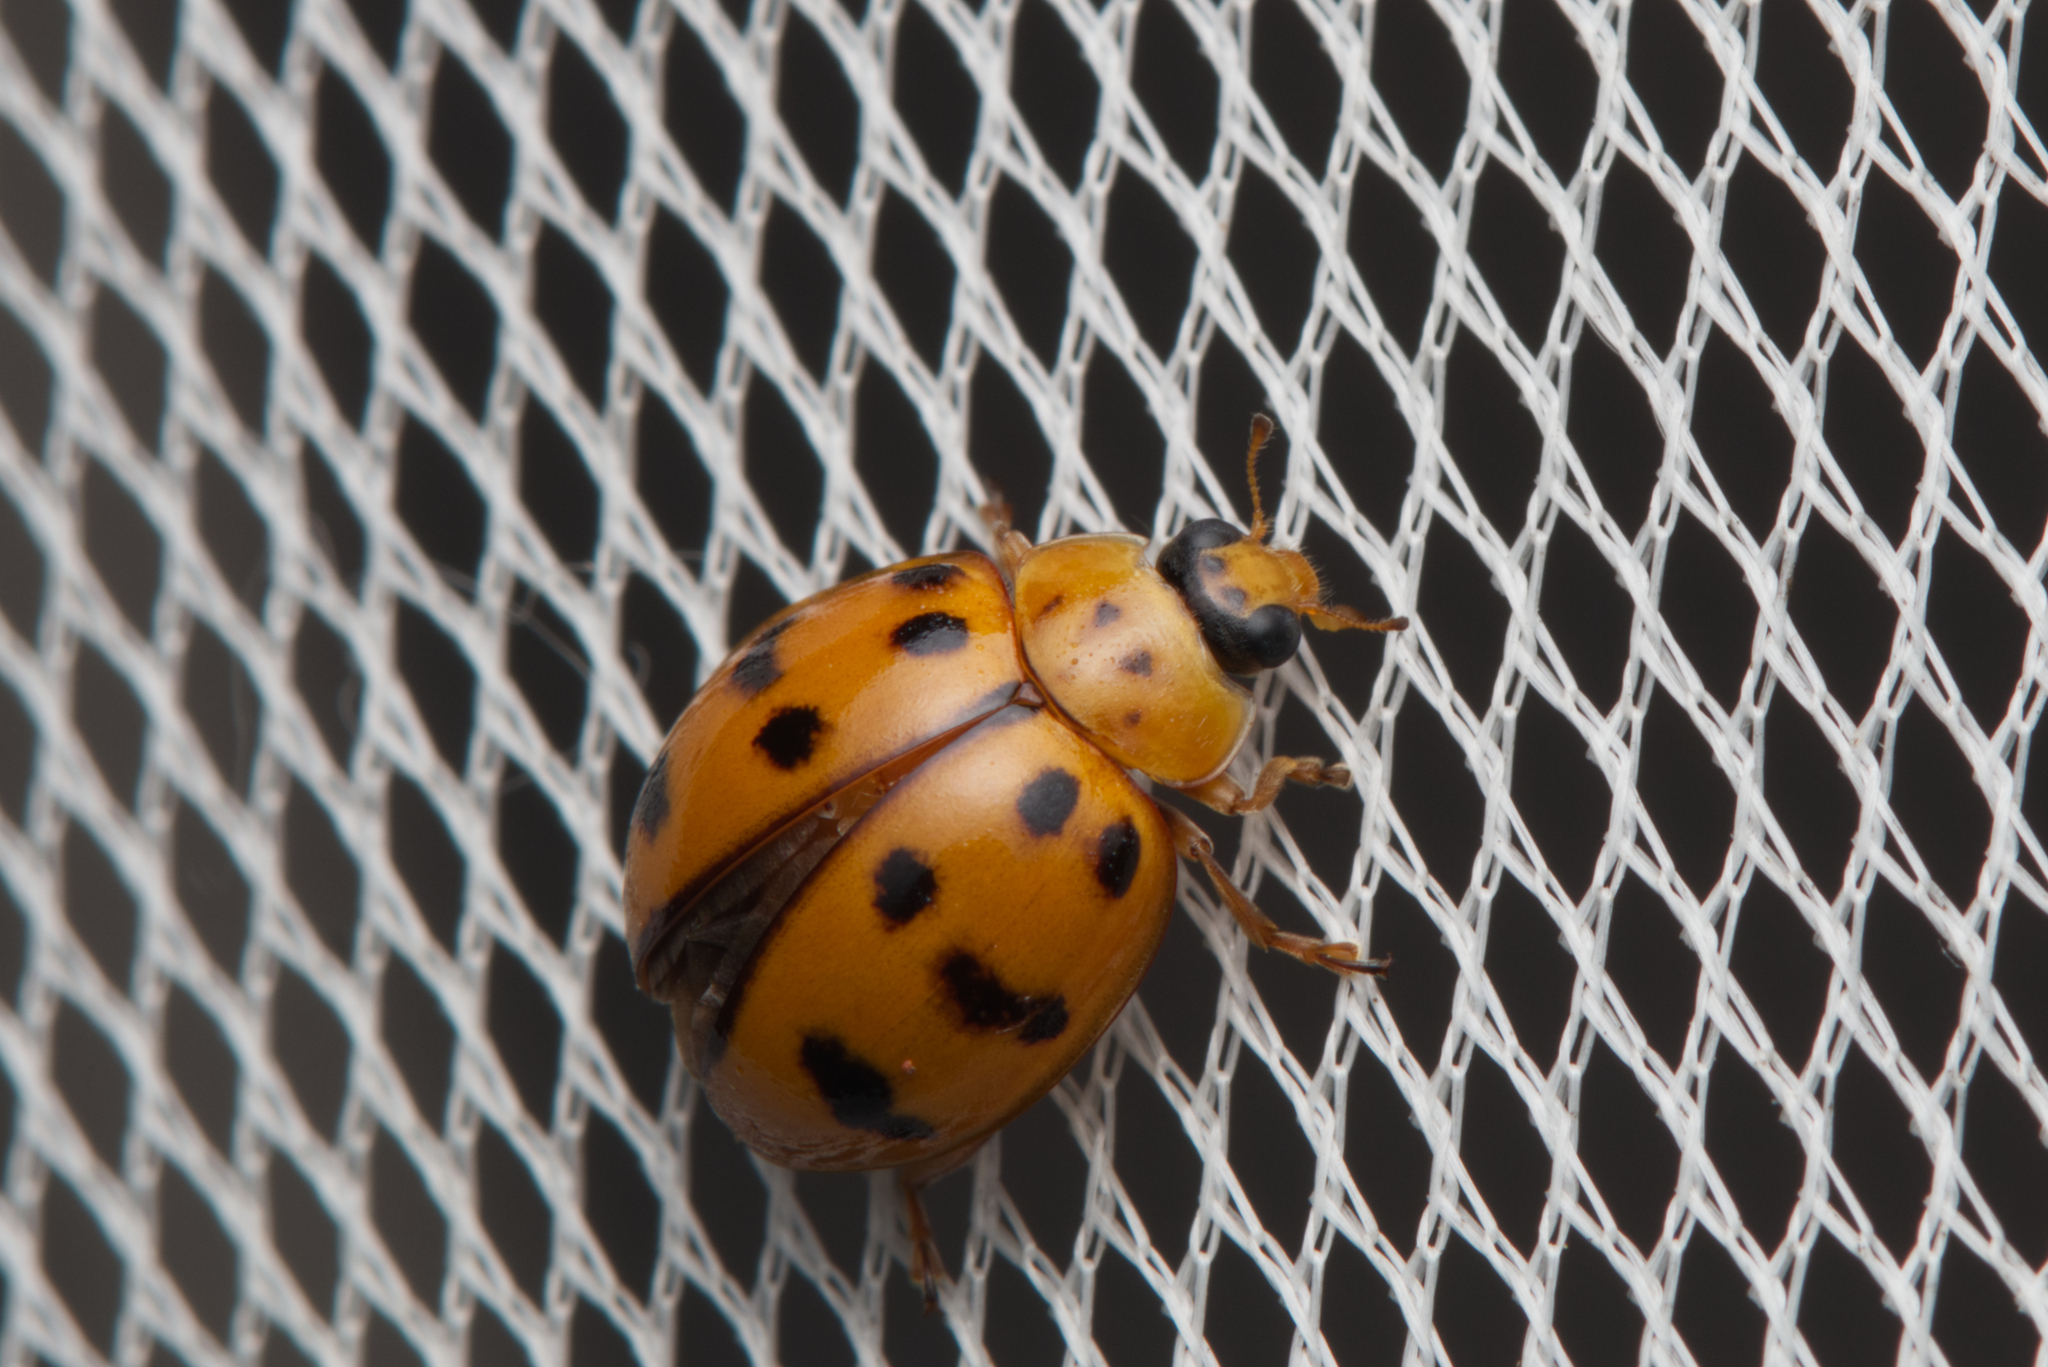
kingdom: Animalia
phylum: Arthropoda
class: Insecta
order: Coleoptera
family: Coccinellidae
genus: Harmonia
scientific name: Harmonia octomaculata
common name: Lady beetle
